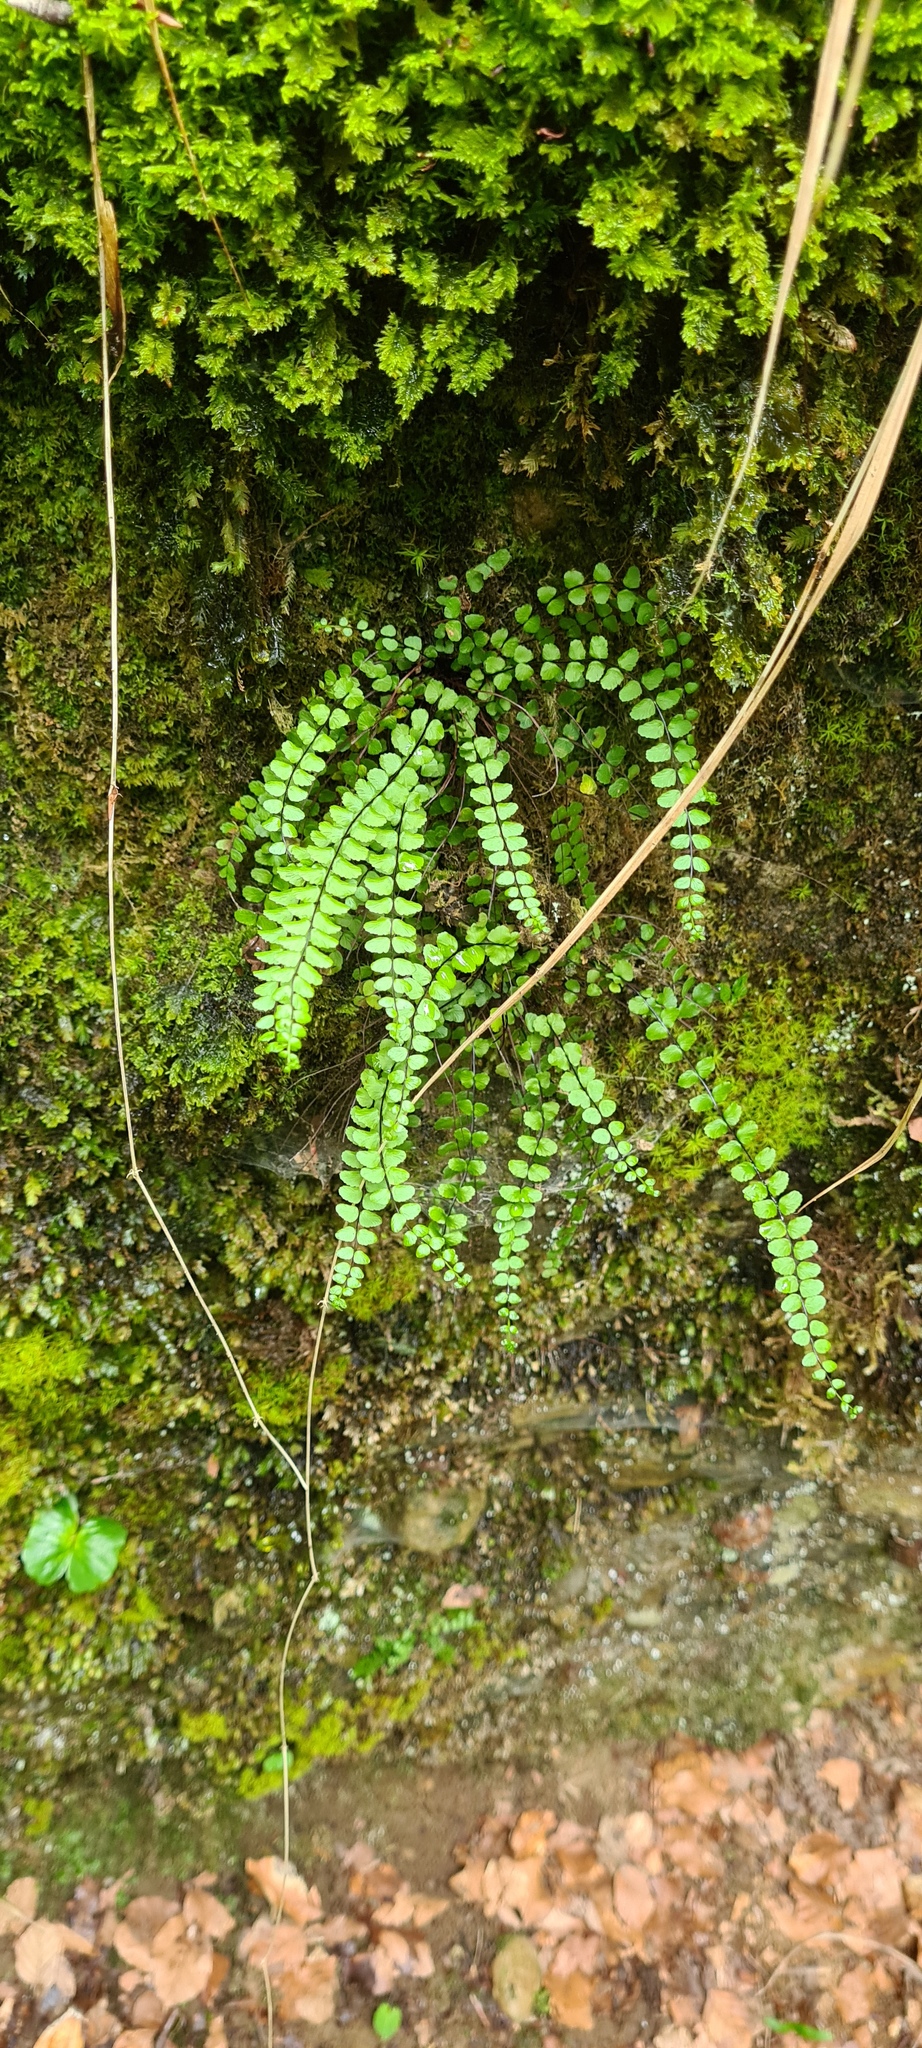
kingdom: Plantae
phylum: Tracheophyta
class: Polypodiopsida
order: Polypodiales
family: Aspleniaceae
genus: Asplenium
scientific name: Asplenium trichomanes
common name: Maidenhair spleenwort
